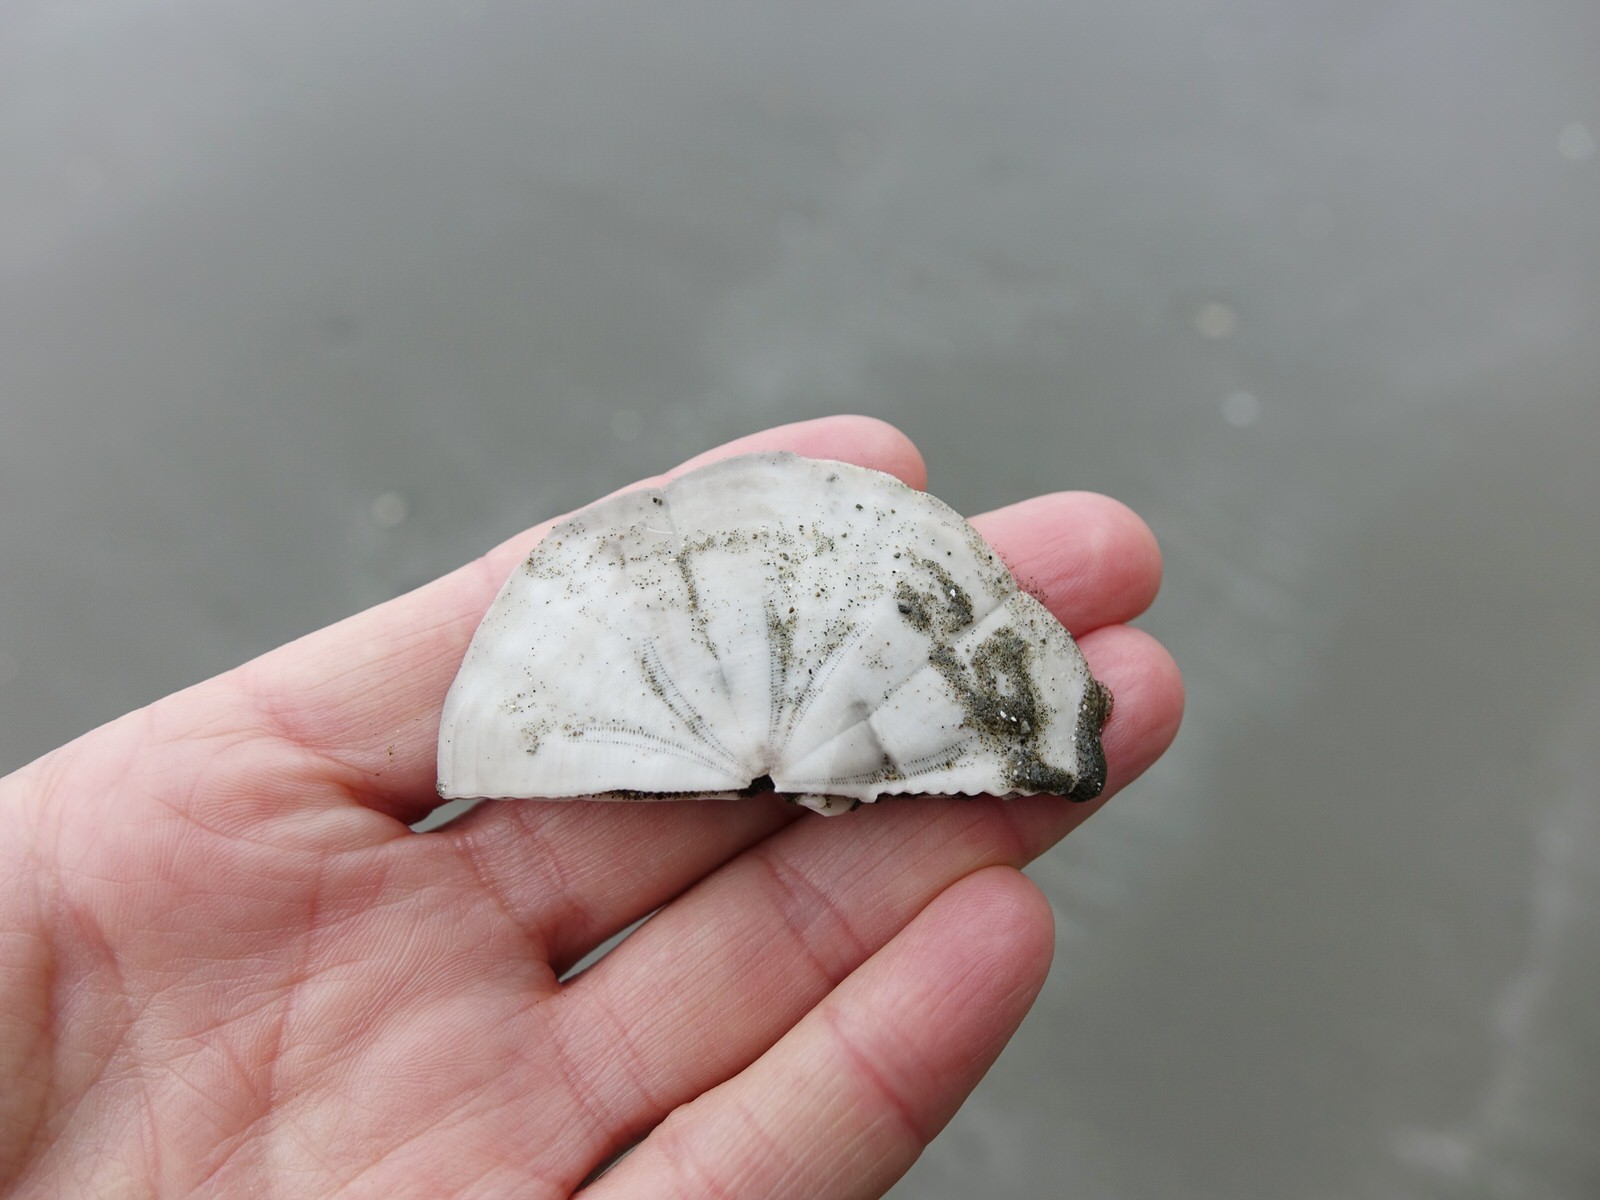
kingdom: Animalia
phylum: Echinodermata
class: Echinoidea
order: Clypeasteroida
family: Clypeasteridae
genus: Fellaster
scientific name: Fellaster zelandiae
